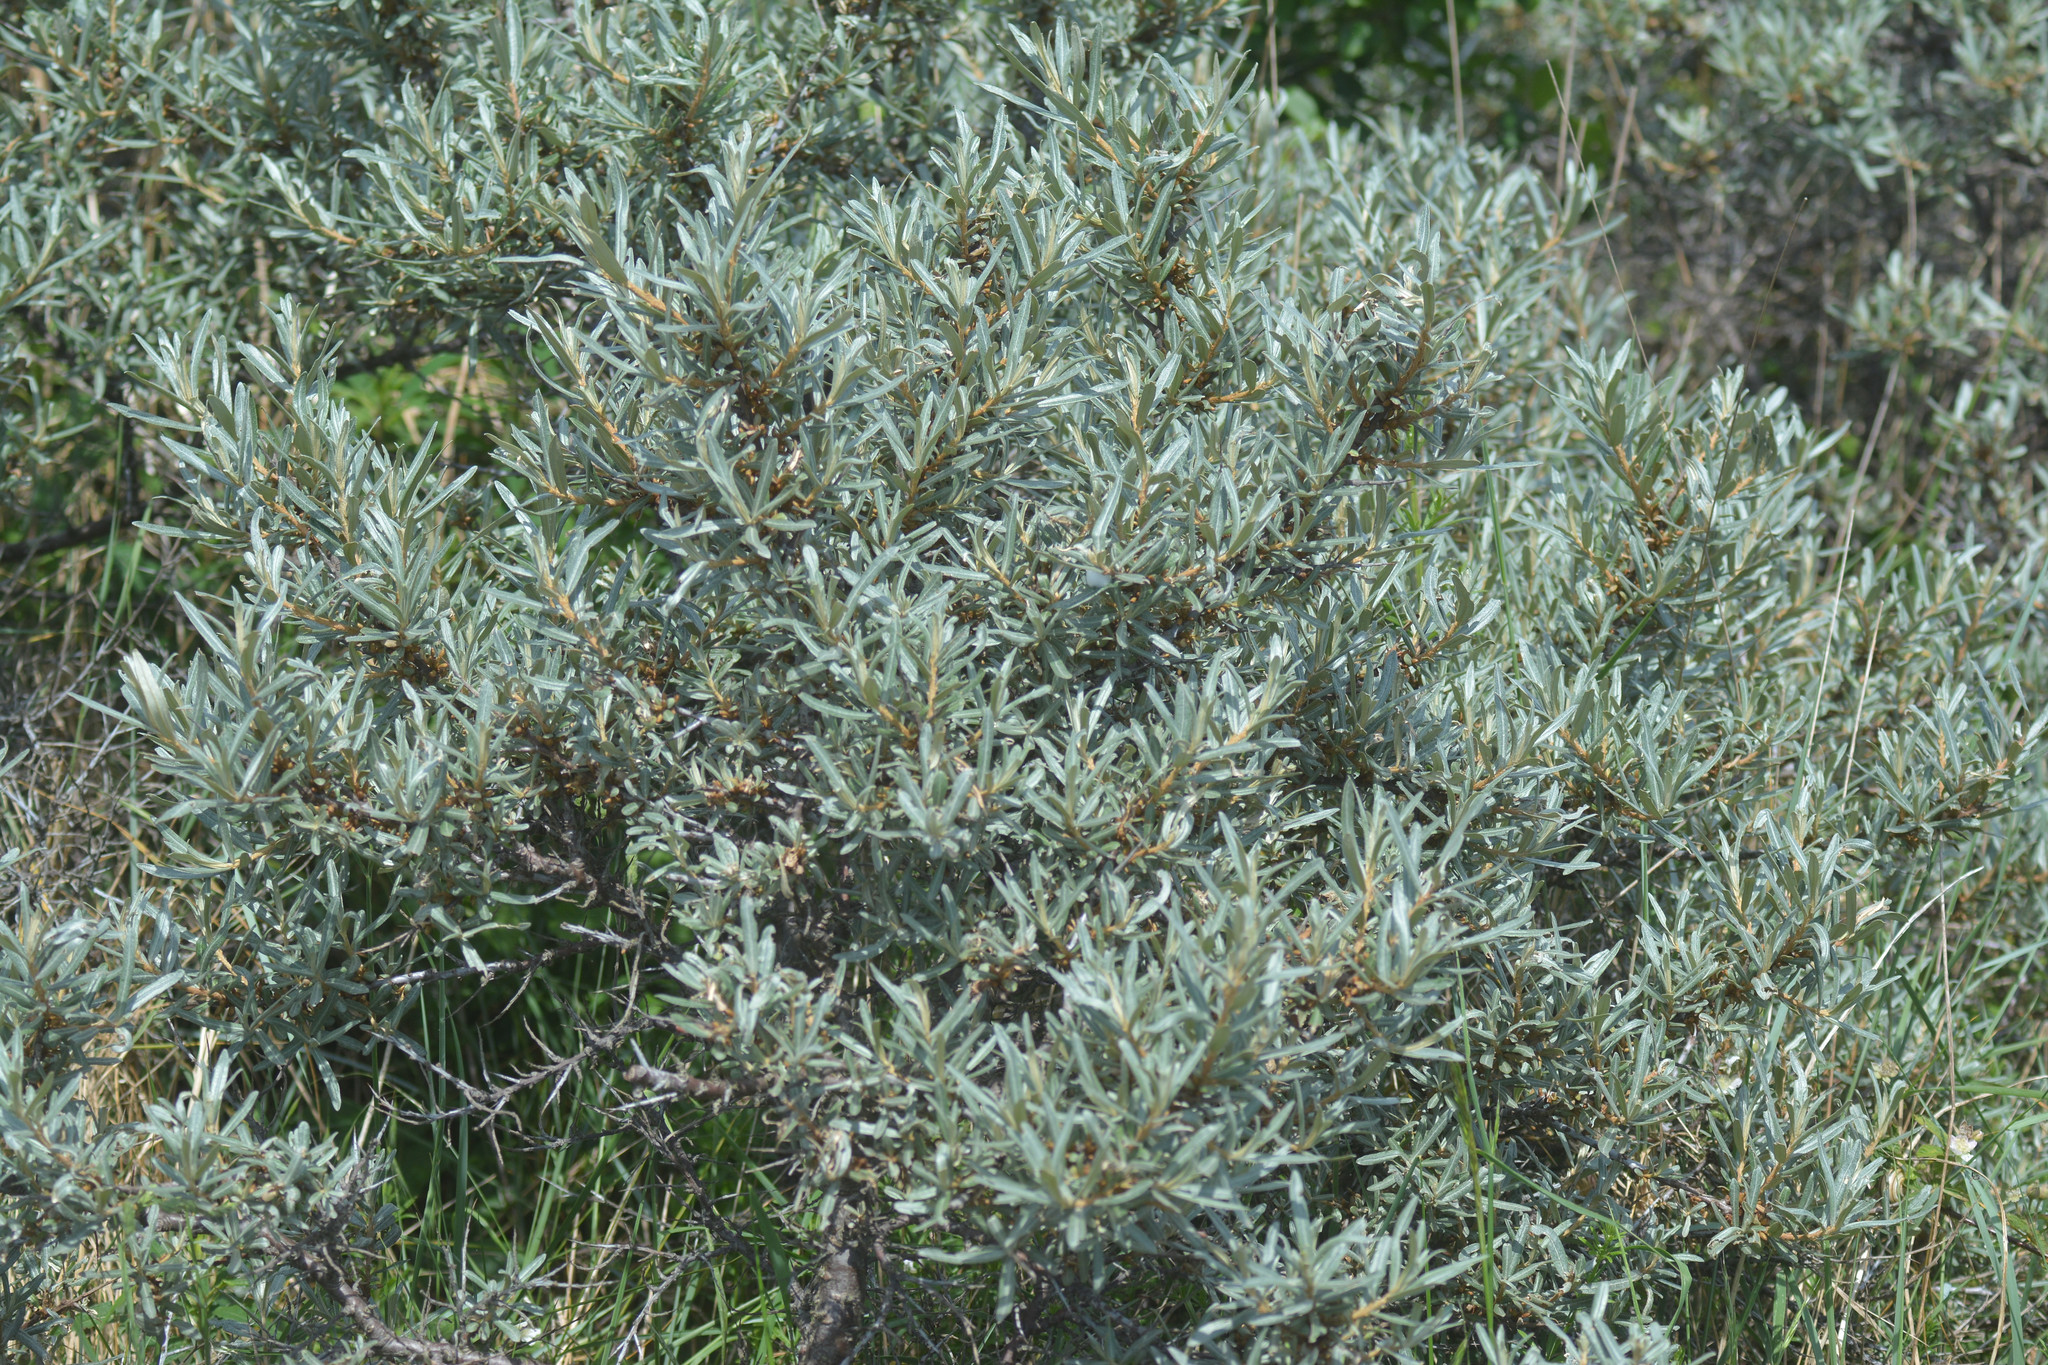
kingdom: Plantae
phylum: Tracheophyta
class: Magnoliopsida
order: Rosales
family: Elaeagnaceae
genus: Hippophae
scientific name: Hippophae rhamnoides
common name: Sea-buckthorn
